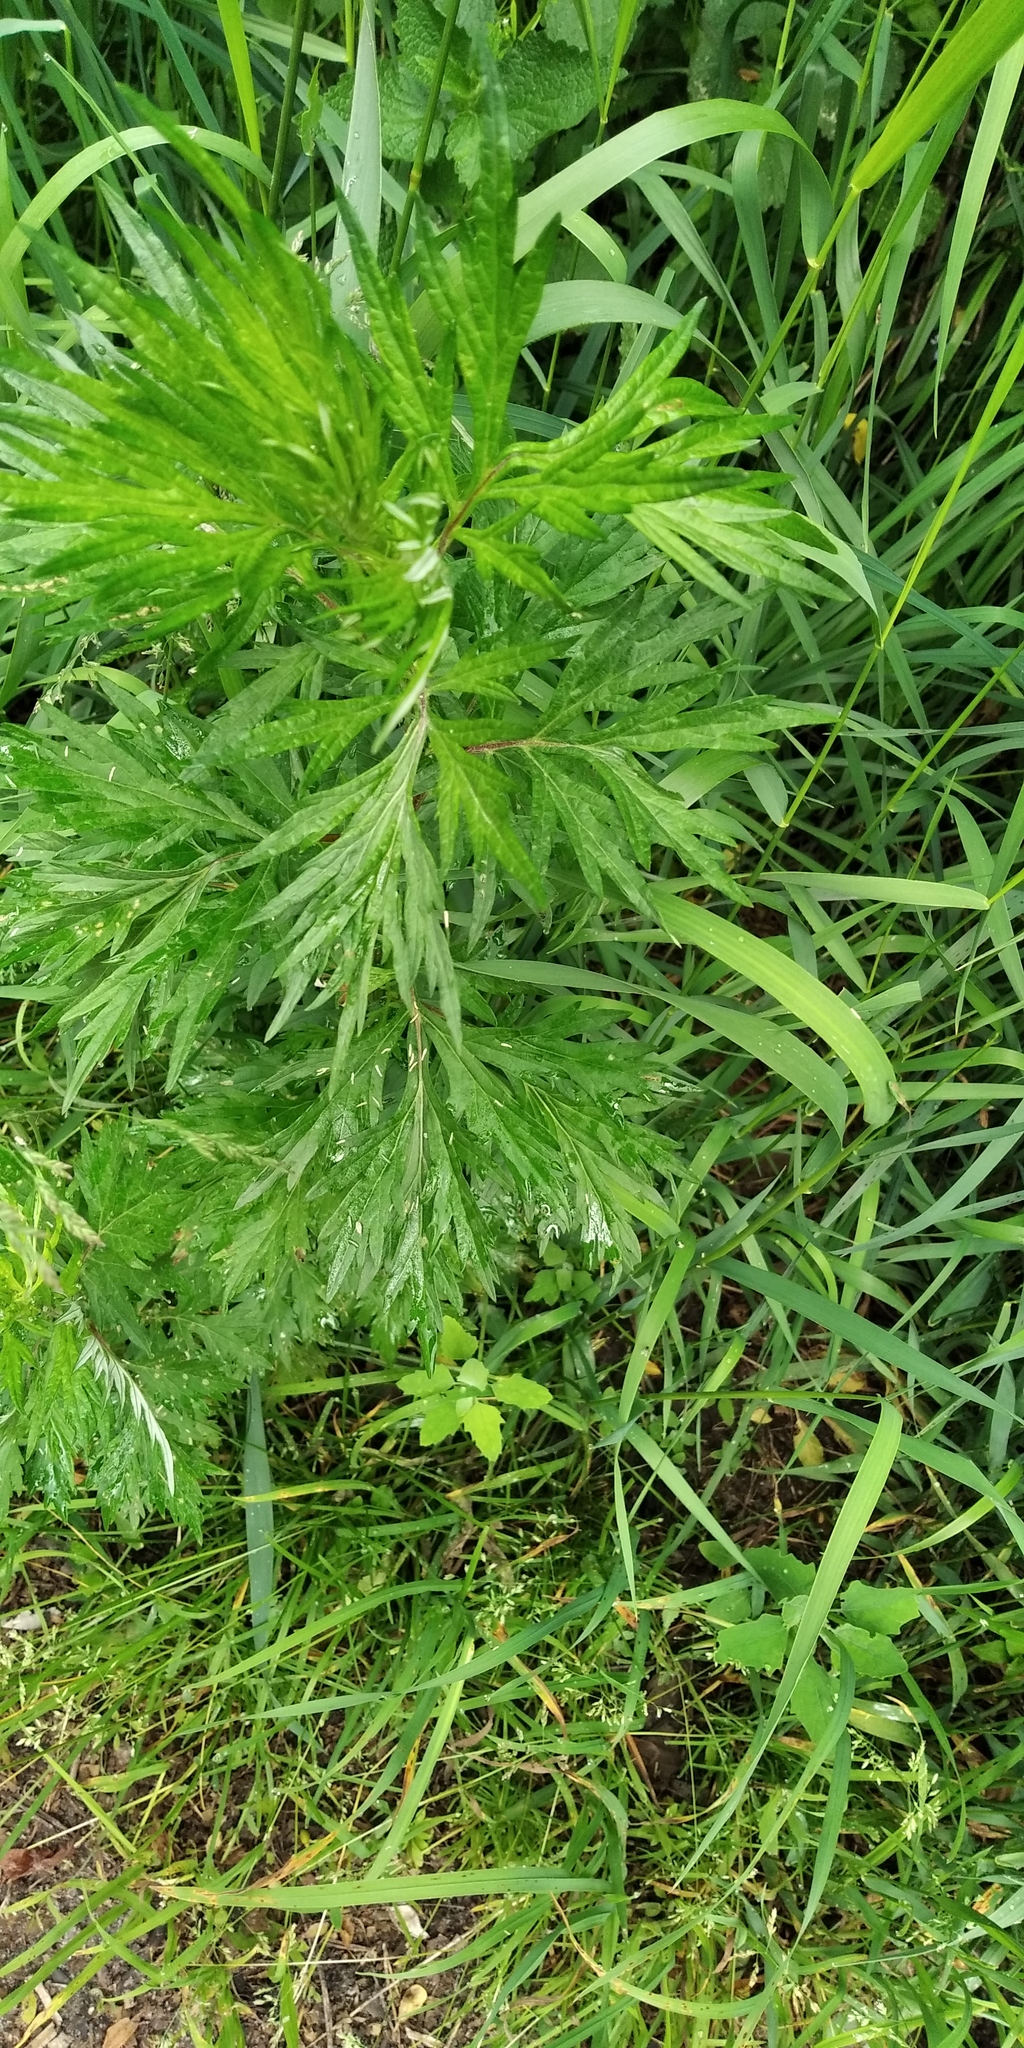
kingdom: Plantae
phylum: Tracheophyta
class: Magnoliopsida
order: Asterales
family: Asteraceae
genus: Artemisia
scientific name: Artemisia vulgaris
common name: Mugwort
